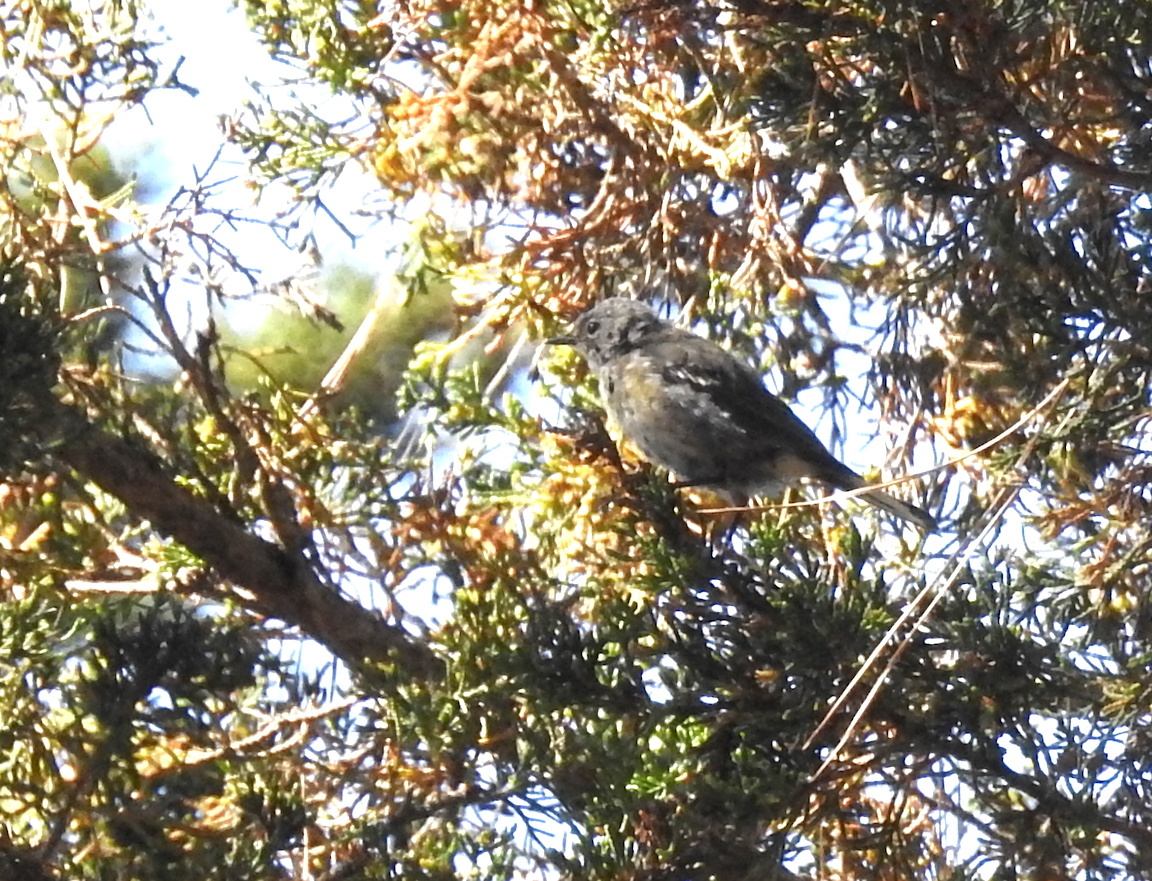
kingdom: Animalia
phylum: Chordata
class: Aves
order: Passeriformes
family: Parulidae
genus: Setophaga
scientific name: Setophaga coronata
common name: Myrtle warbler
